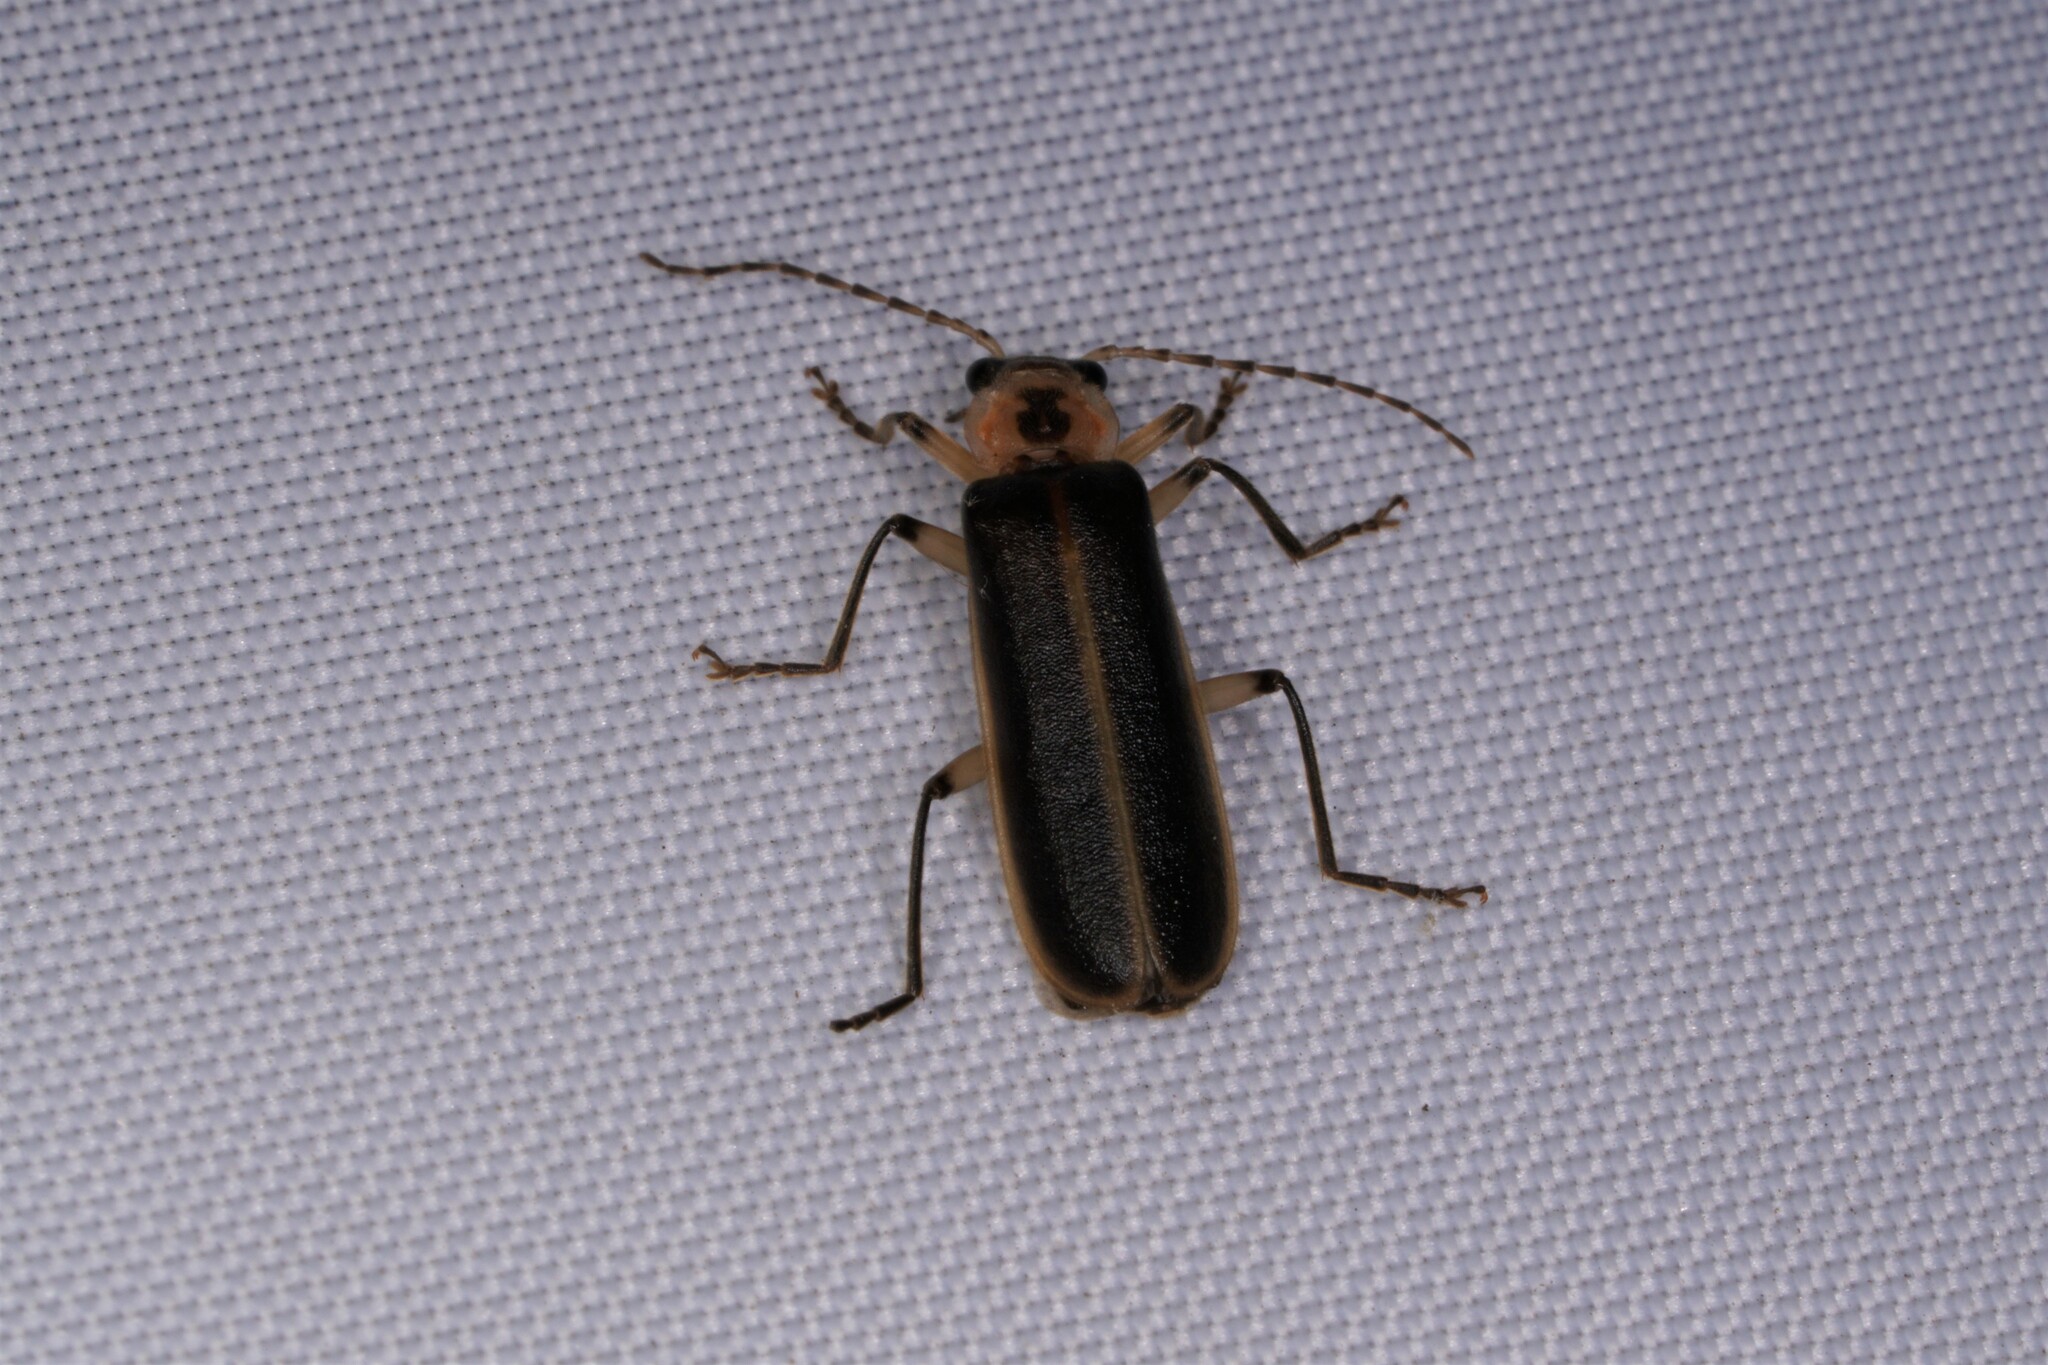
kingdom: Animalia
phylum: Arthropoda
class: Insecta
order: Coleoptera
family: Cantharidae
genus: Podabrus
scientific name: Podabrus basilaris
